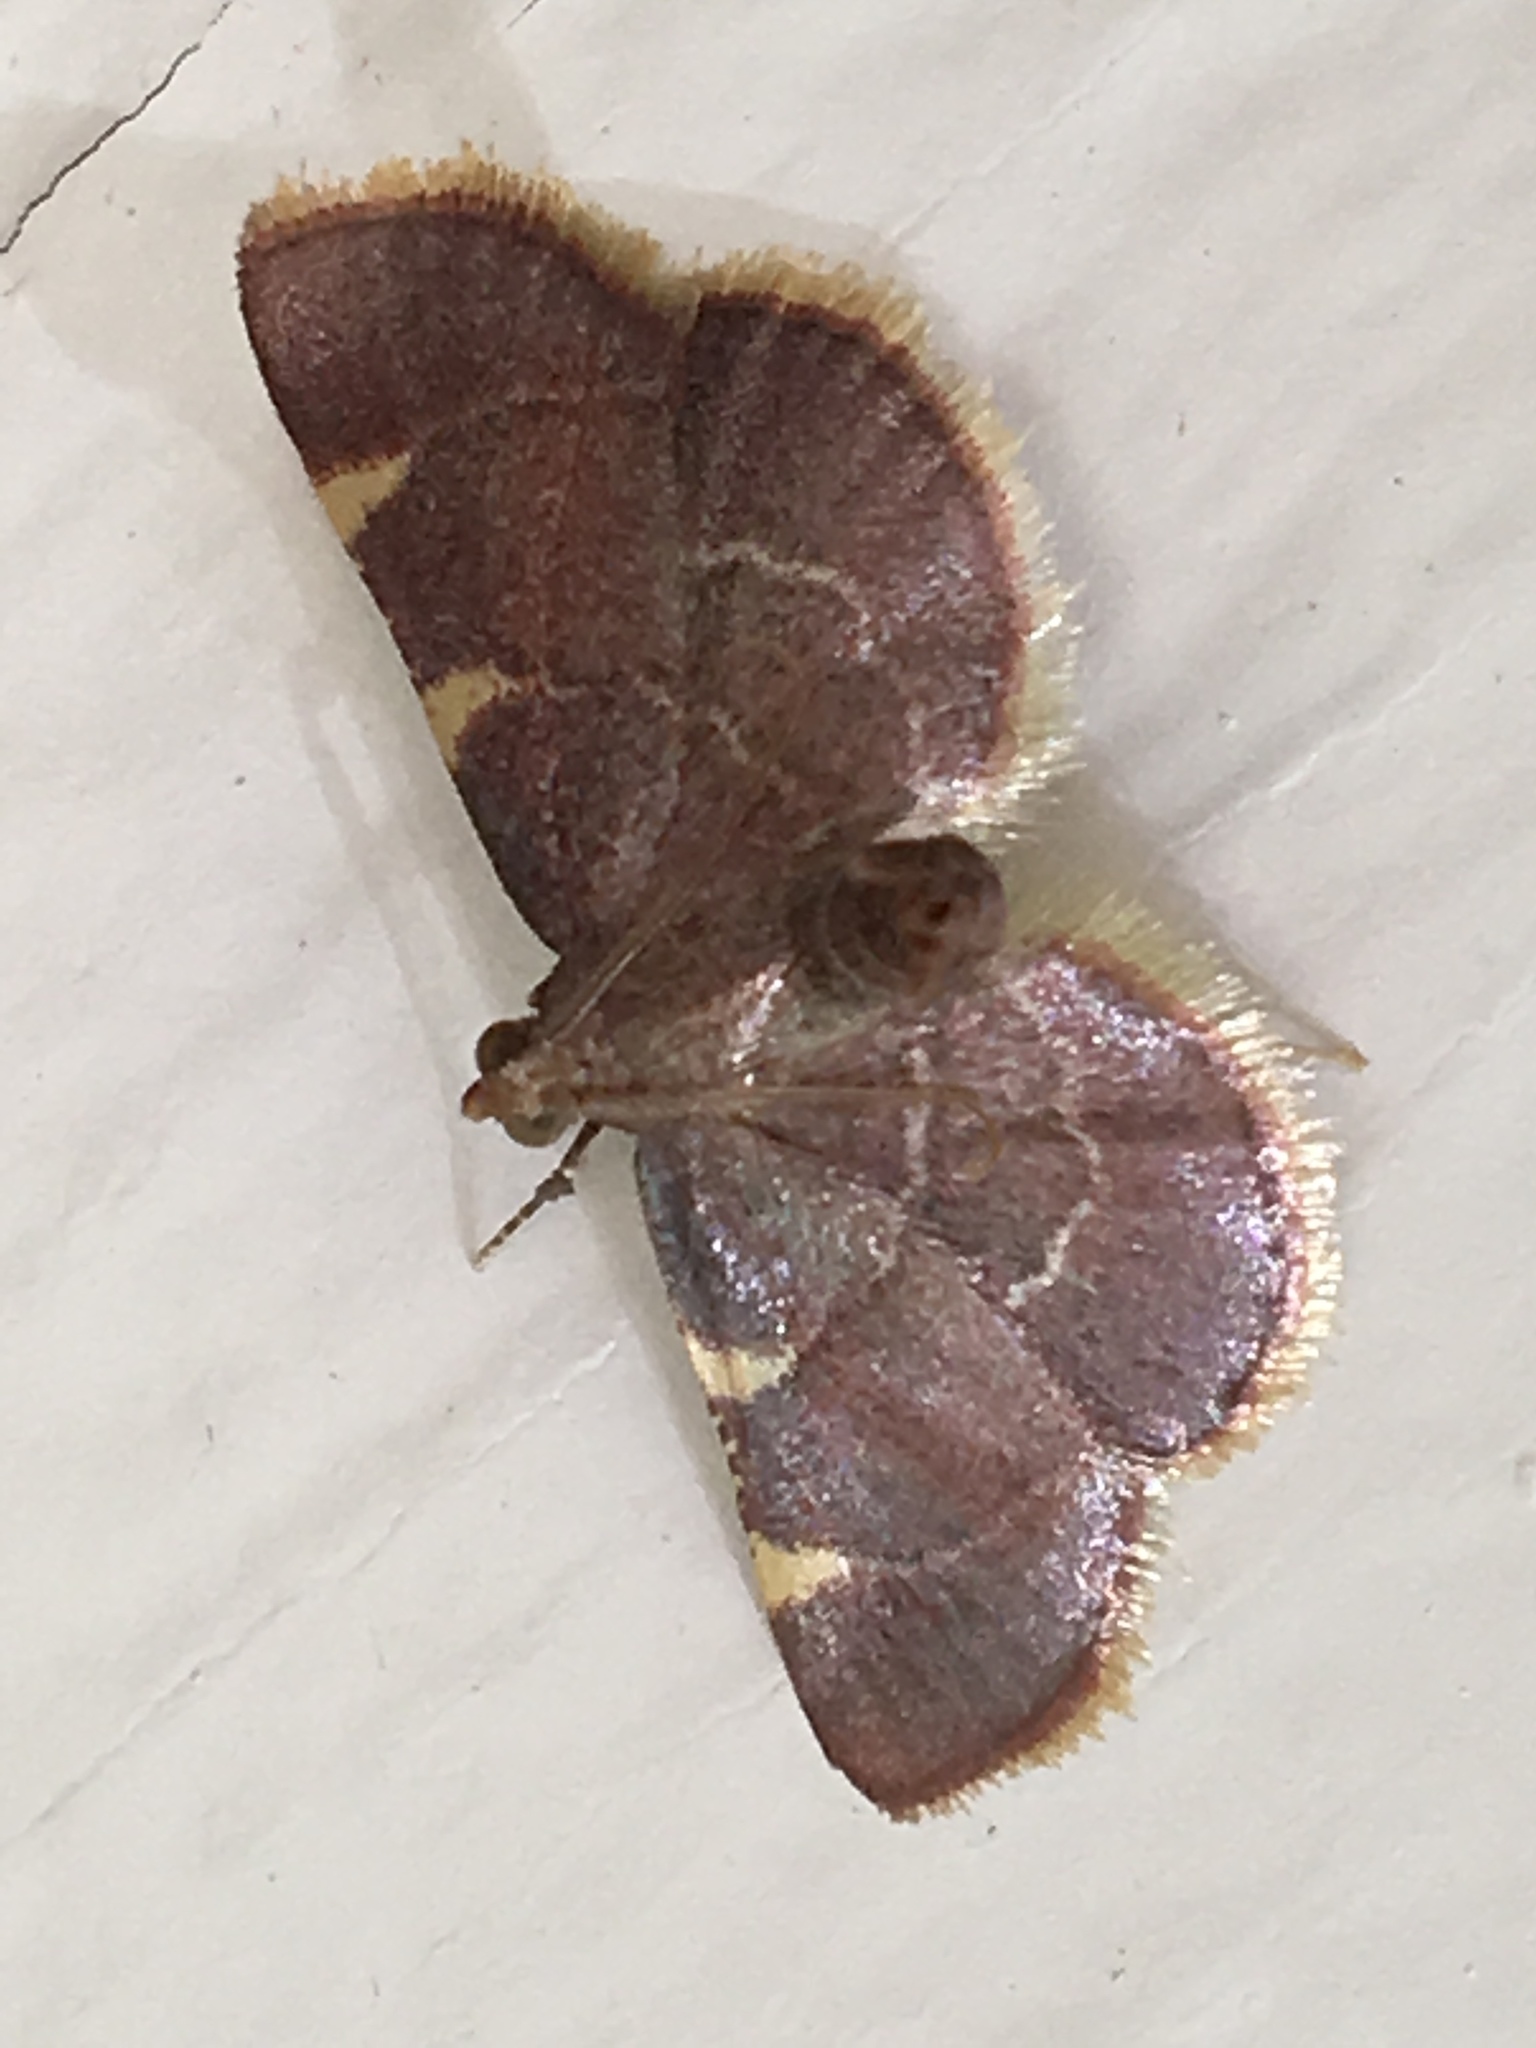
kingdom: Animalia
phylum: Arthropoda
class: Insecta
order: Lepidoptera
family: Pyralidae
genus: Hypsopygia
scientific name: Hypsopygia olinalis
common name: Yellow-fringed dolichomia moth
